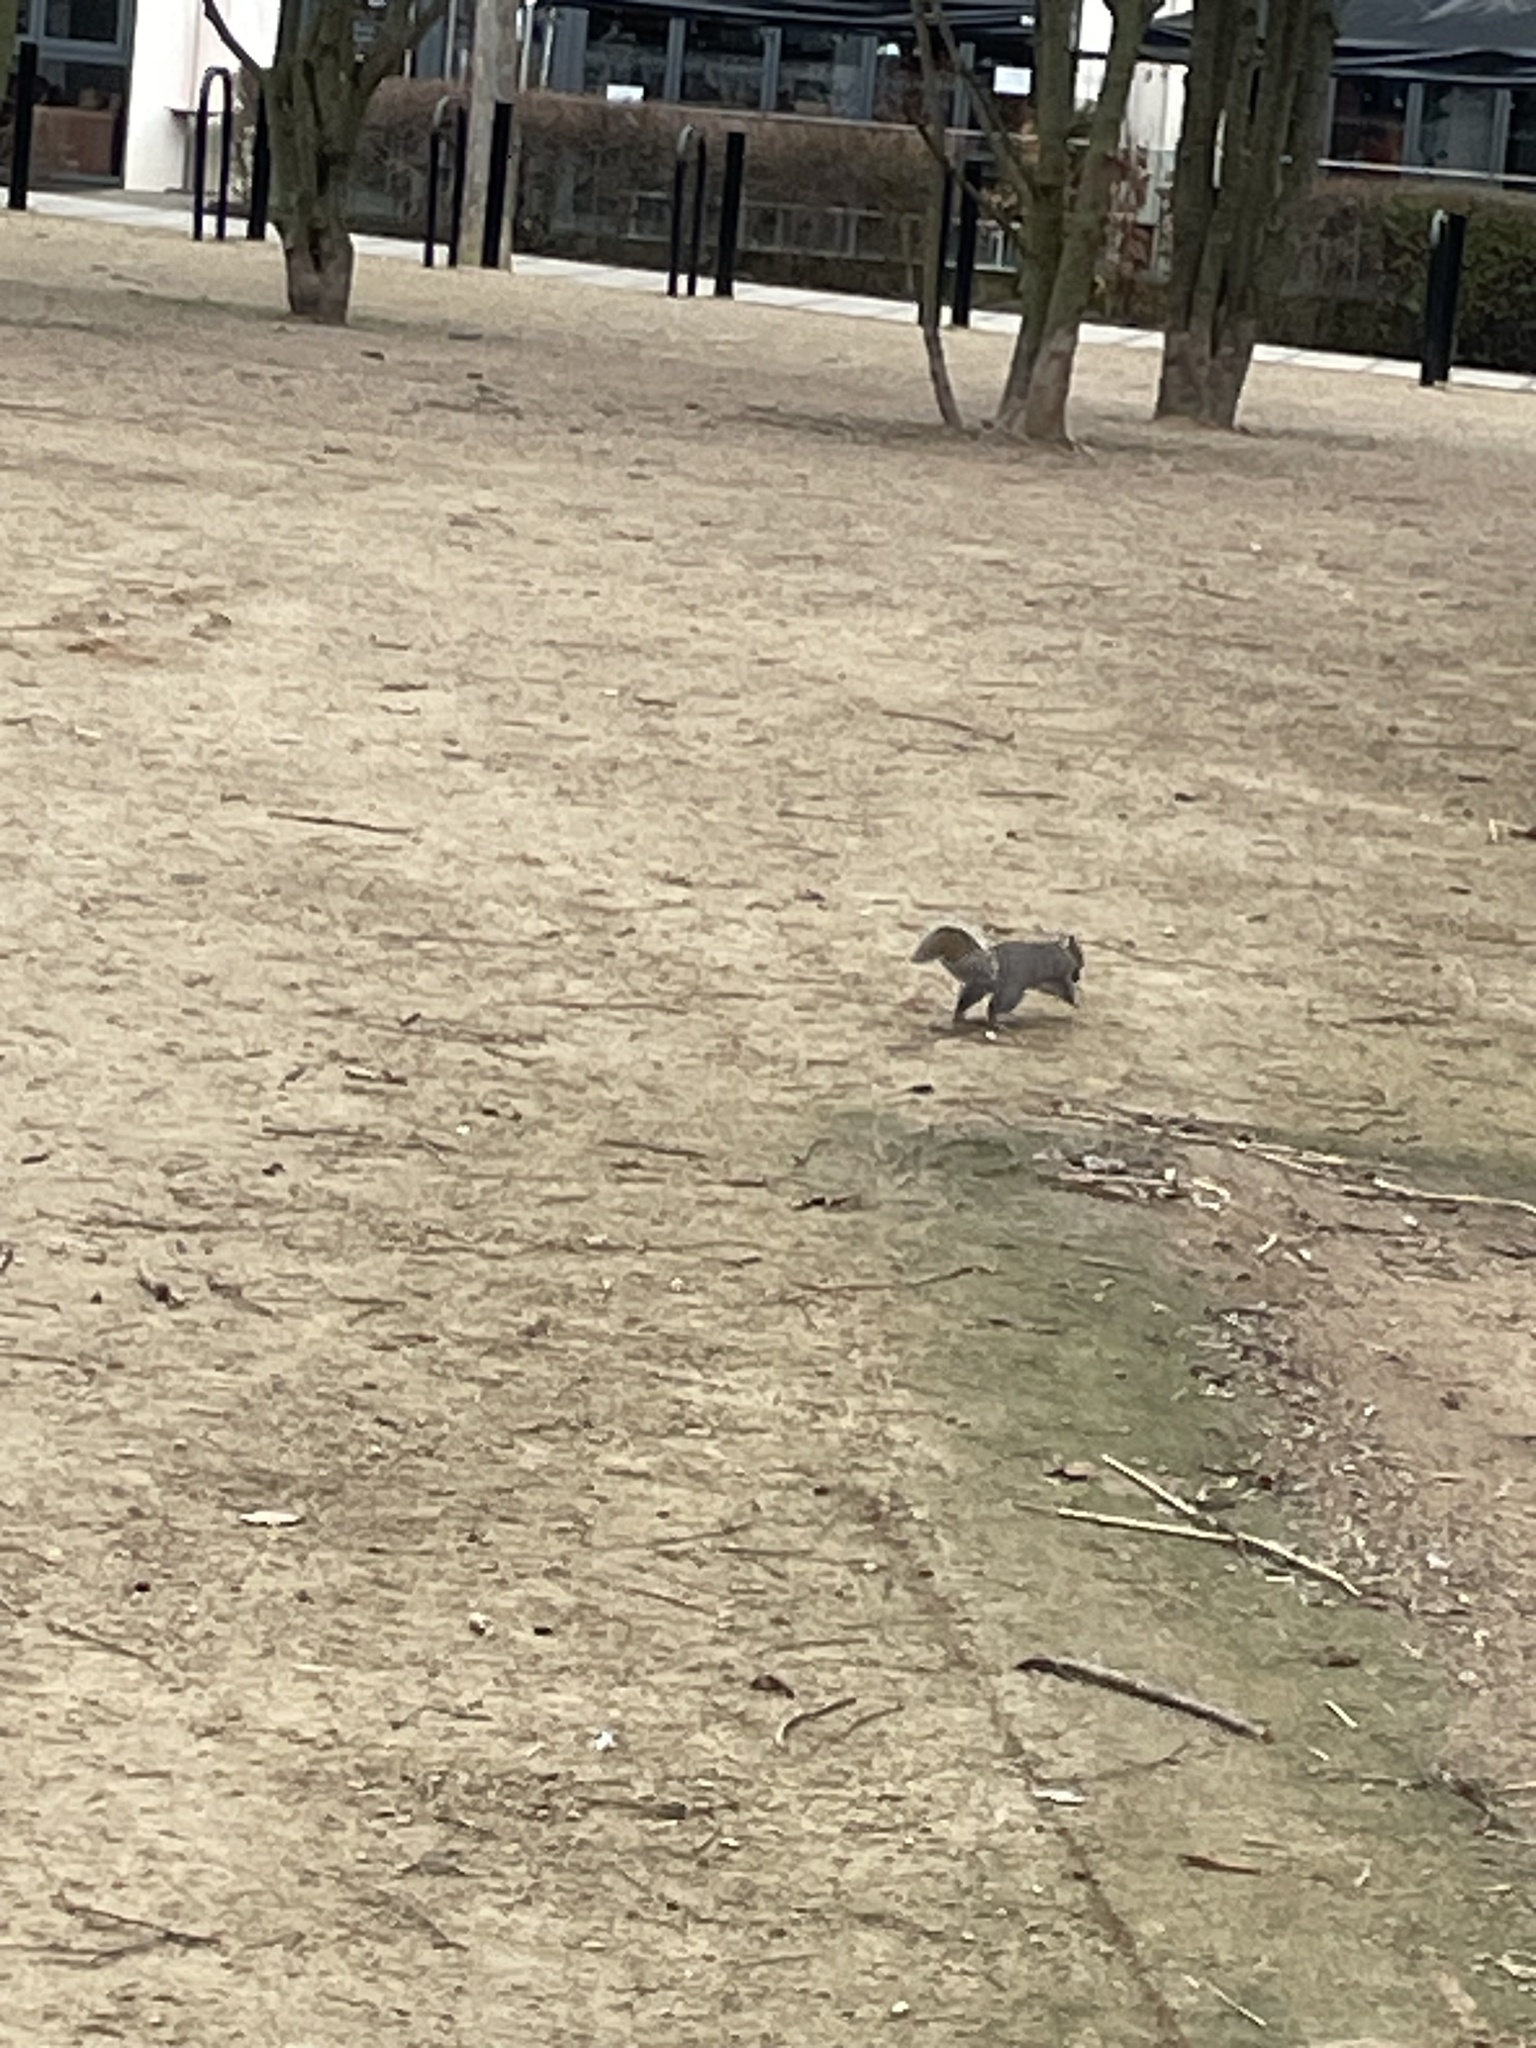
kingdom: Animalia
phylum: Chordata
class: Mammalia
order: Rodentia
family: Sciuridae
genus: Sciurus
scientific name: Sciurus carolinensis
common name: Eastern gray squirrel
